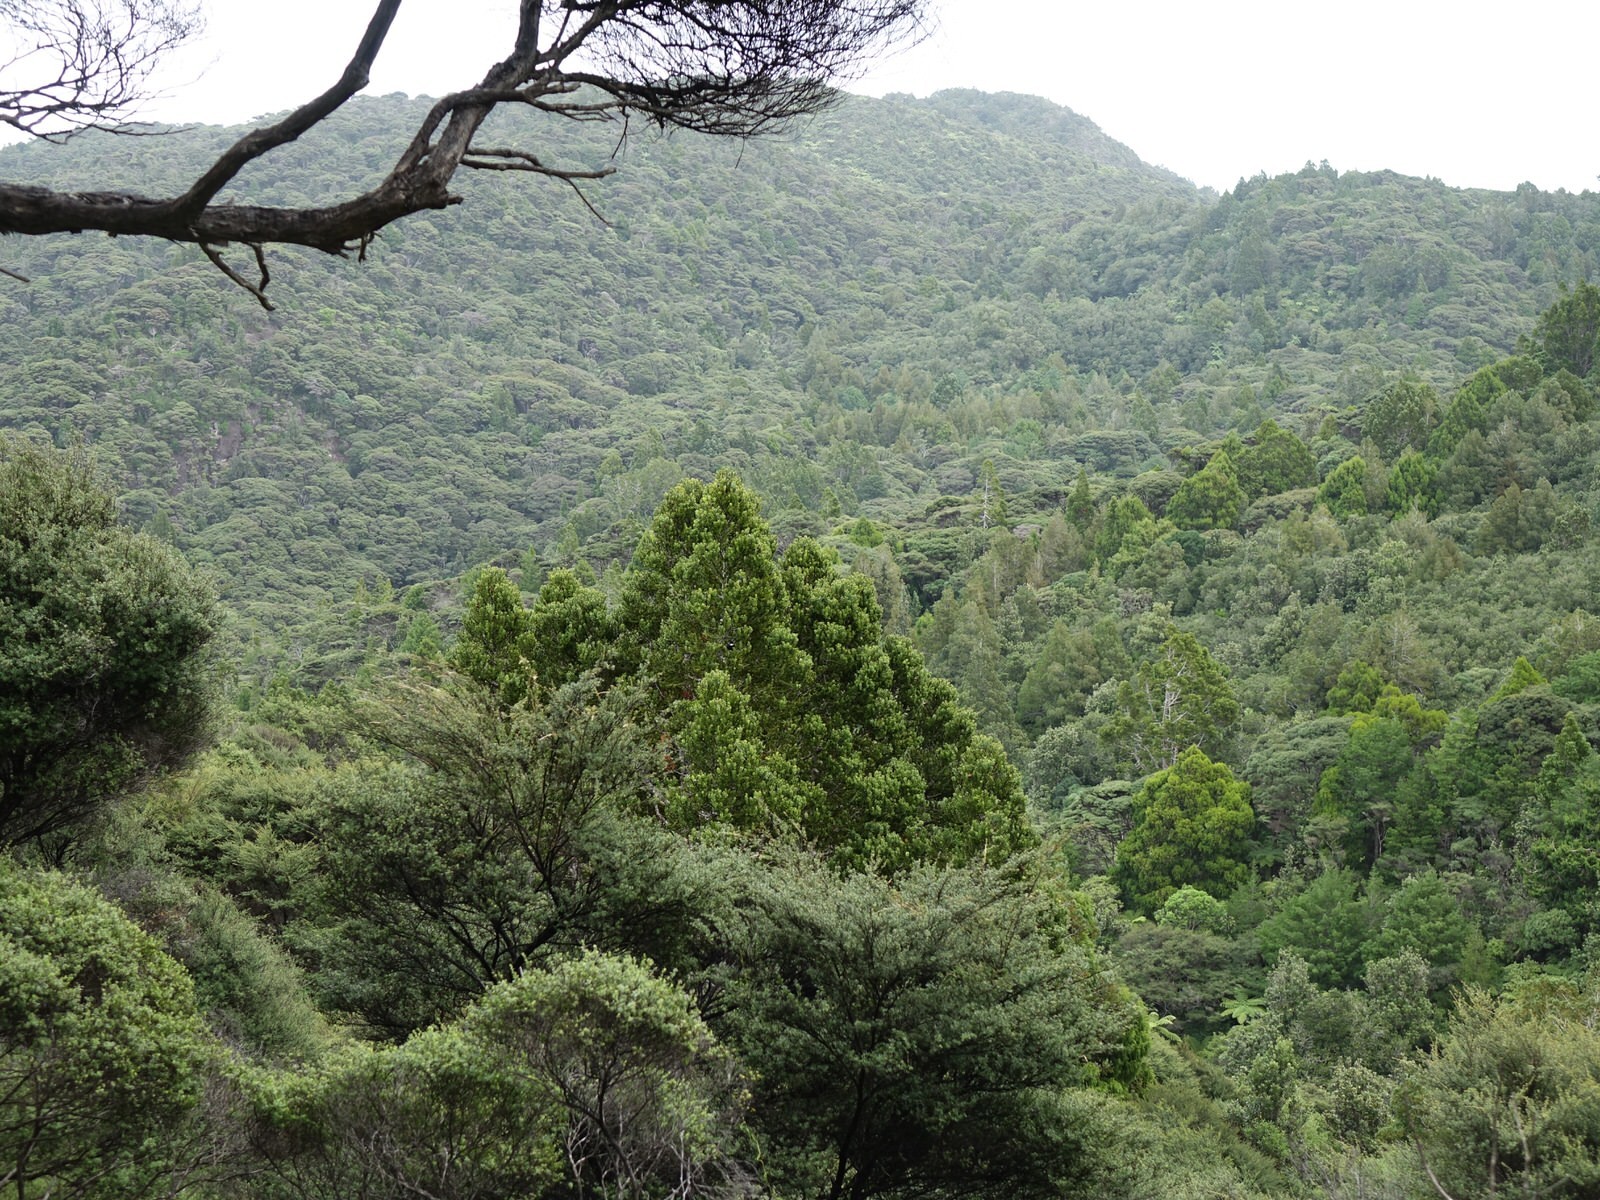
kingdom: Animalia
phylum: Chordata
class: Aves
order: Passeriformes
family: Meliphagidae
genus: Prosthemadera
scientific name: Prosthemadera novaeseelandiae
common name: Tui
